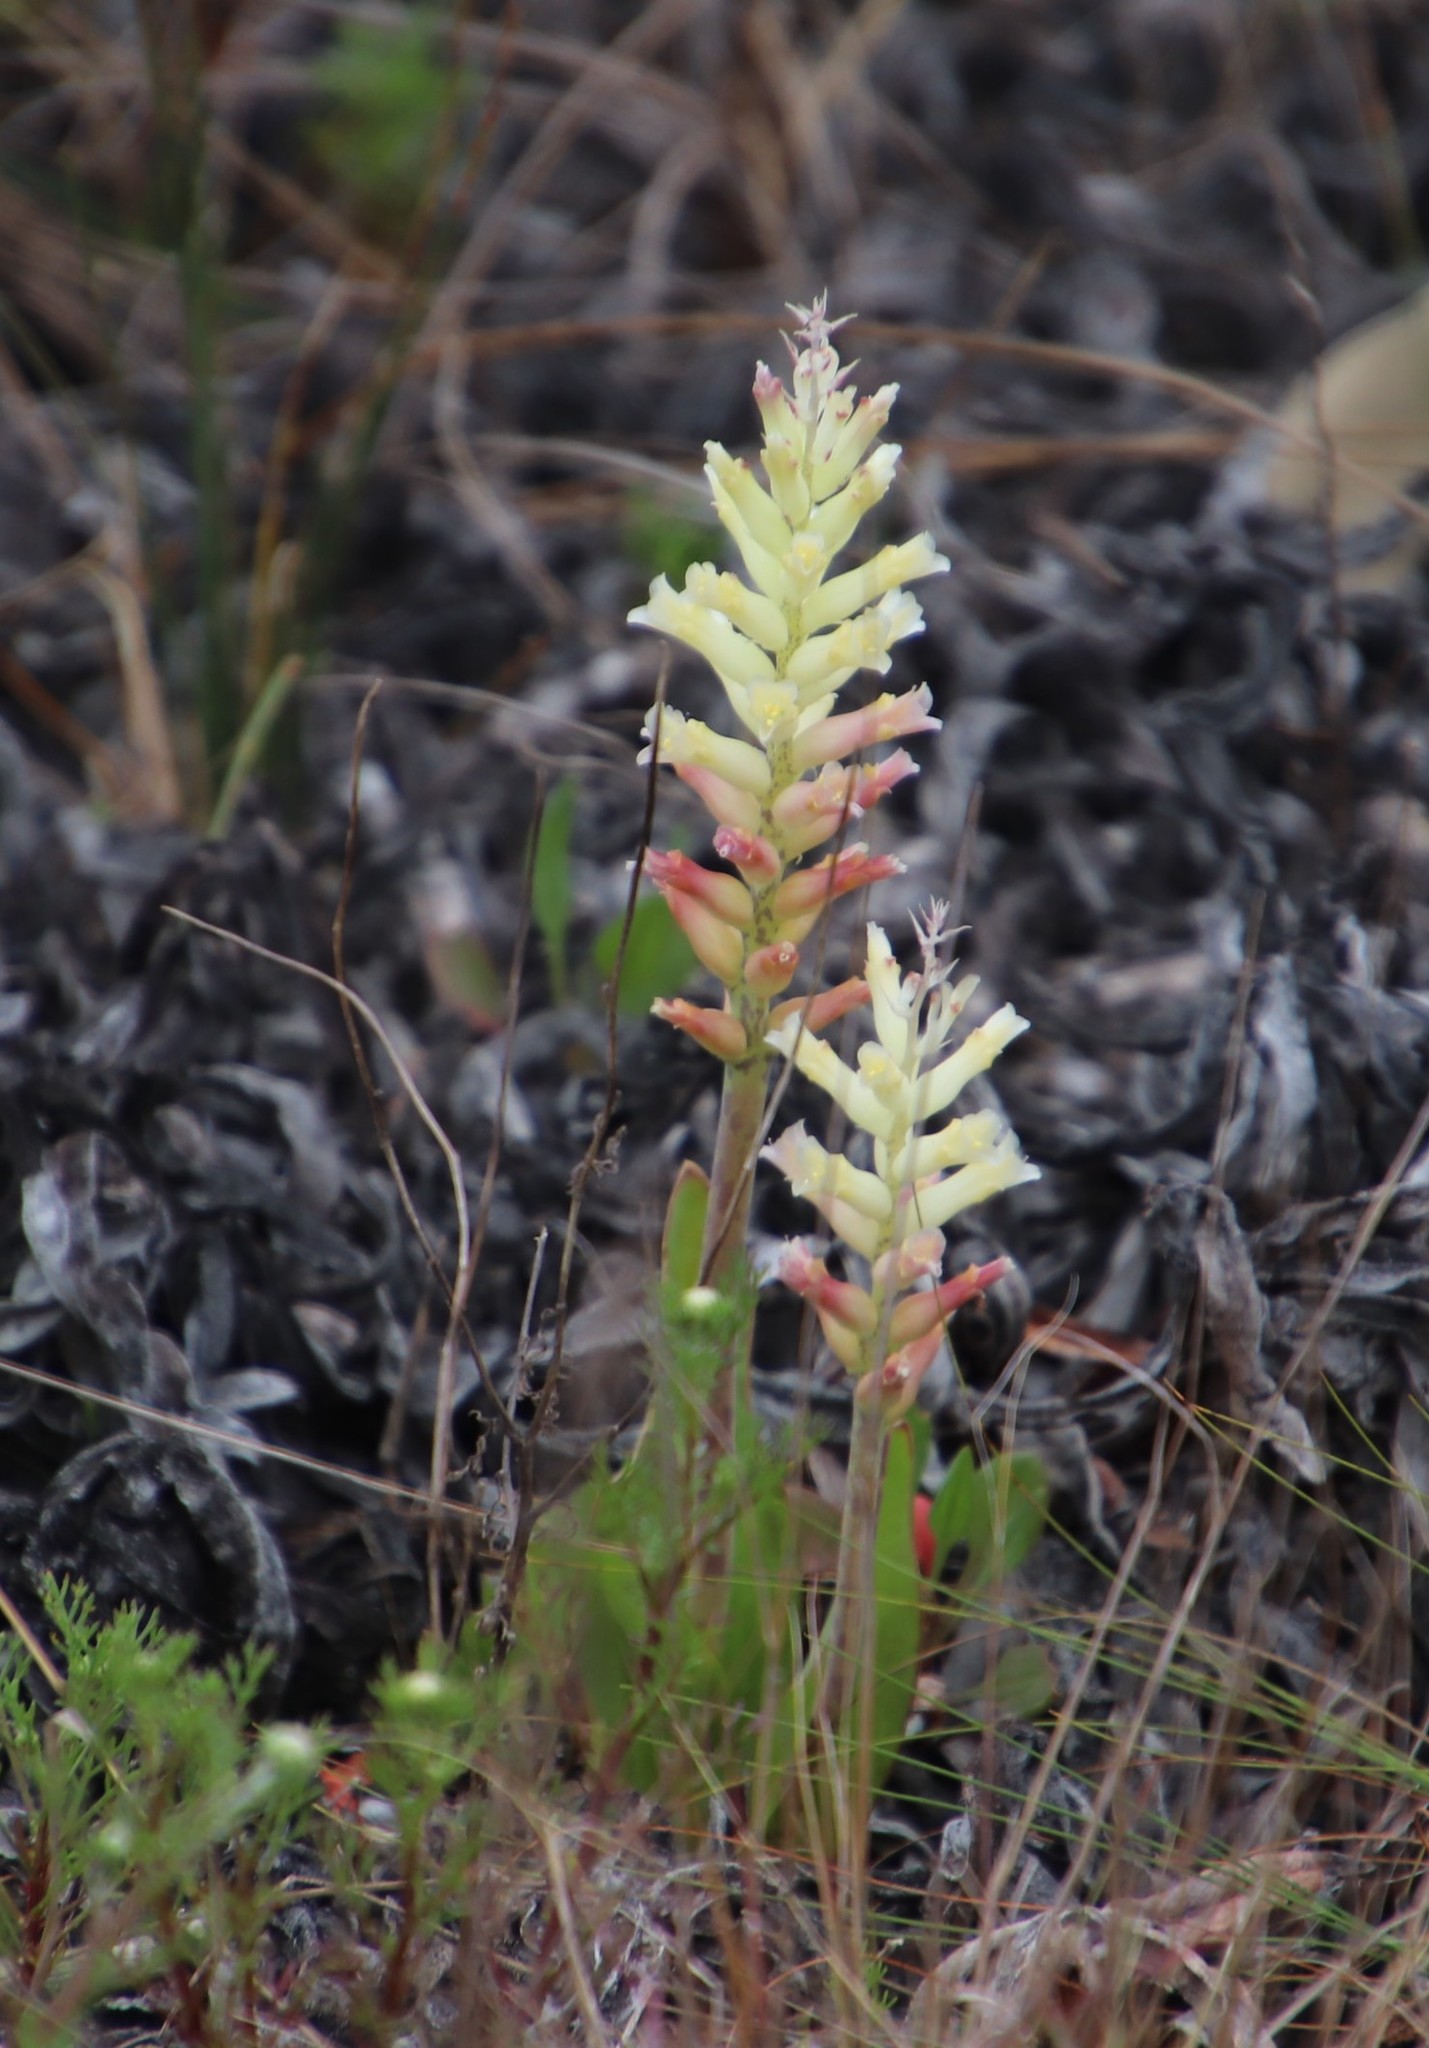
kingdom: Plantae
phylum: Tracheophyta
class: Liliopsida
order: Asparagales
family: Asparagaceae
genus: Lachenalia
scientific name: Lachenalia orchioides
